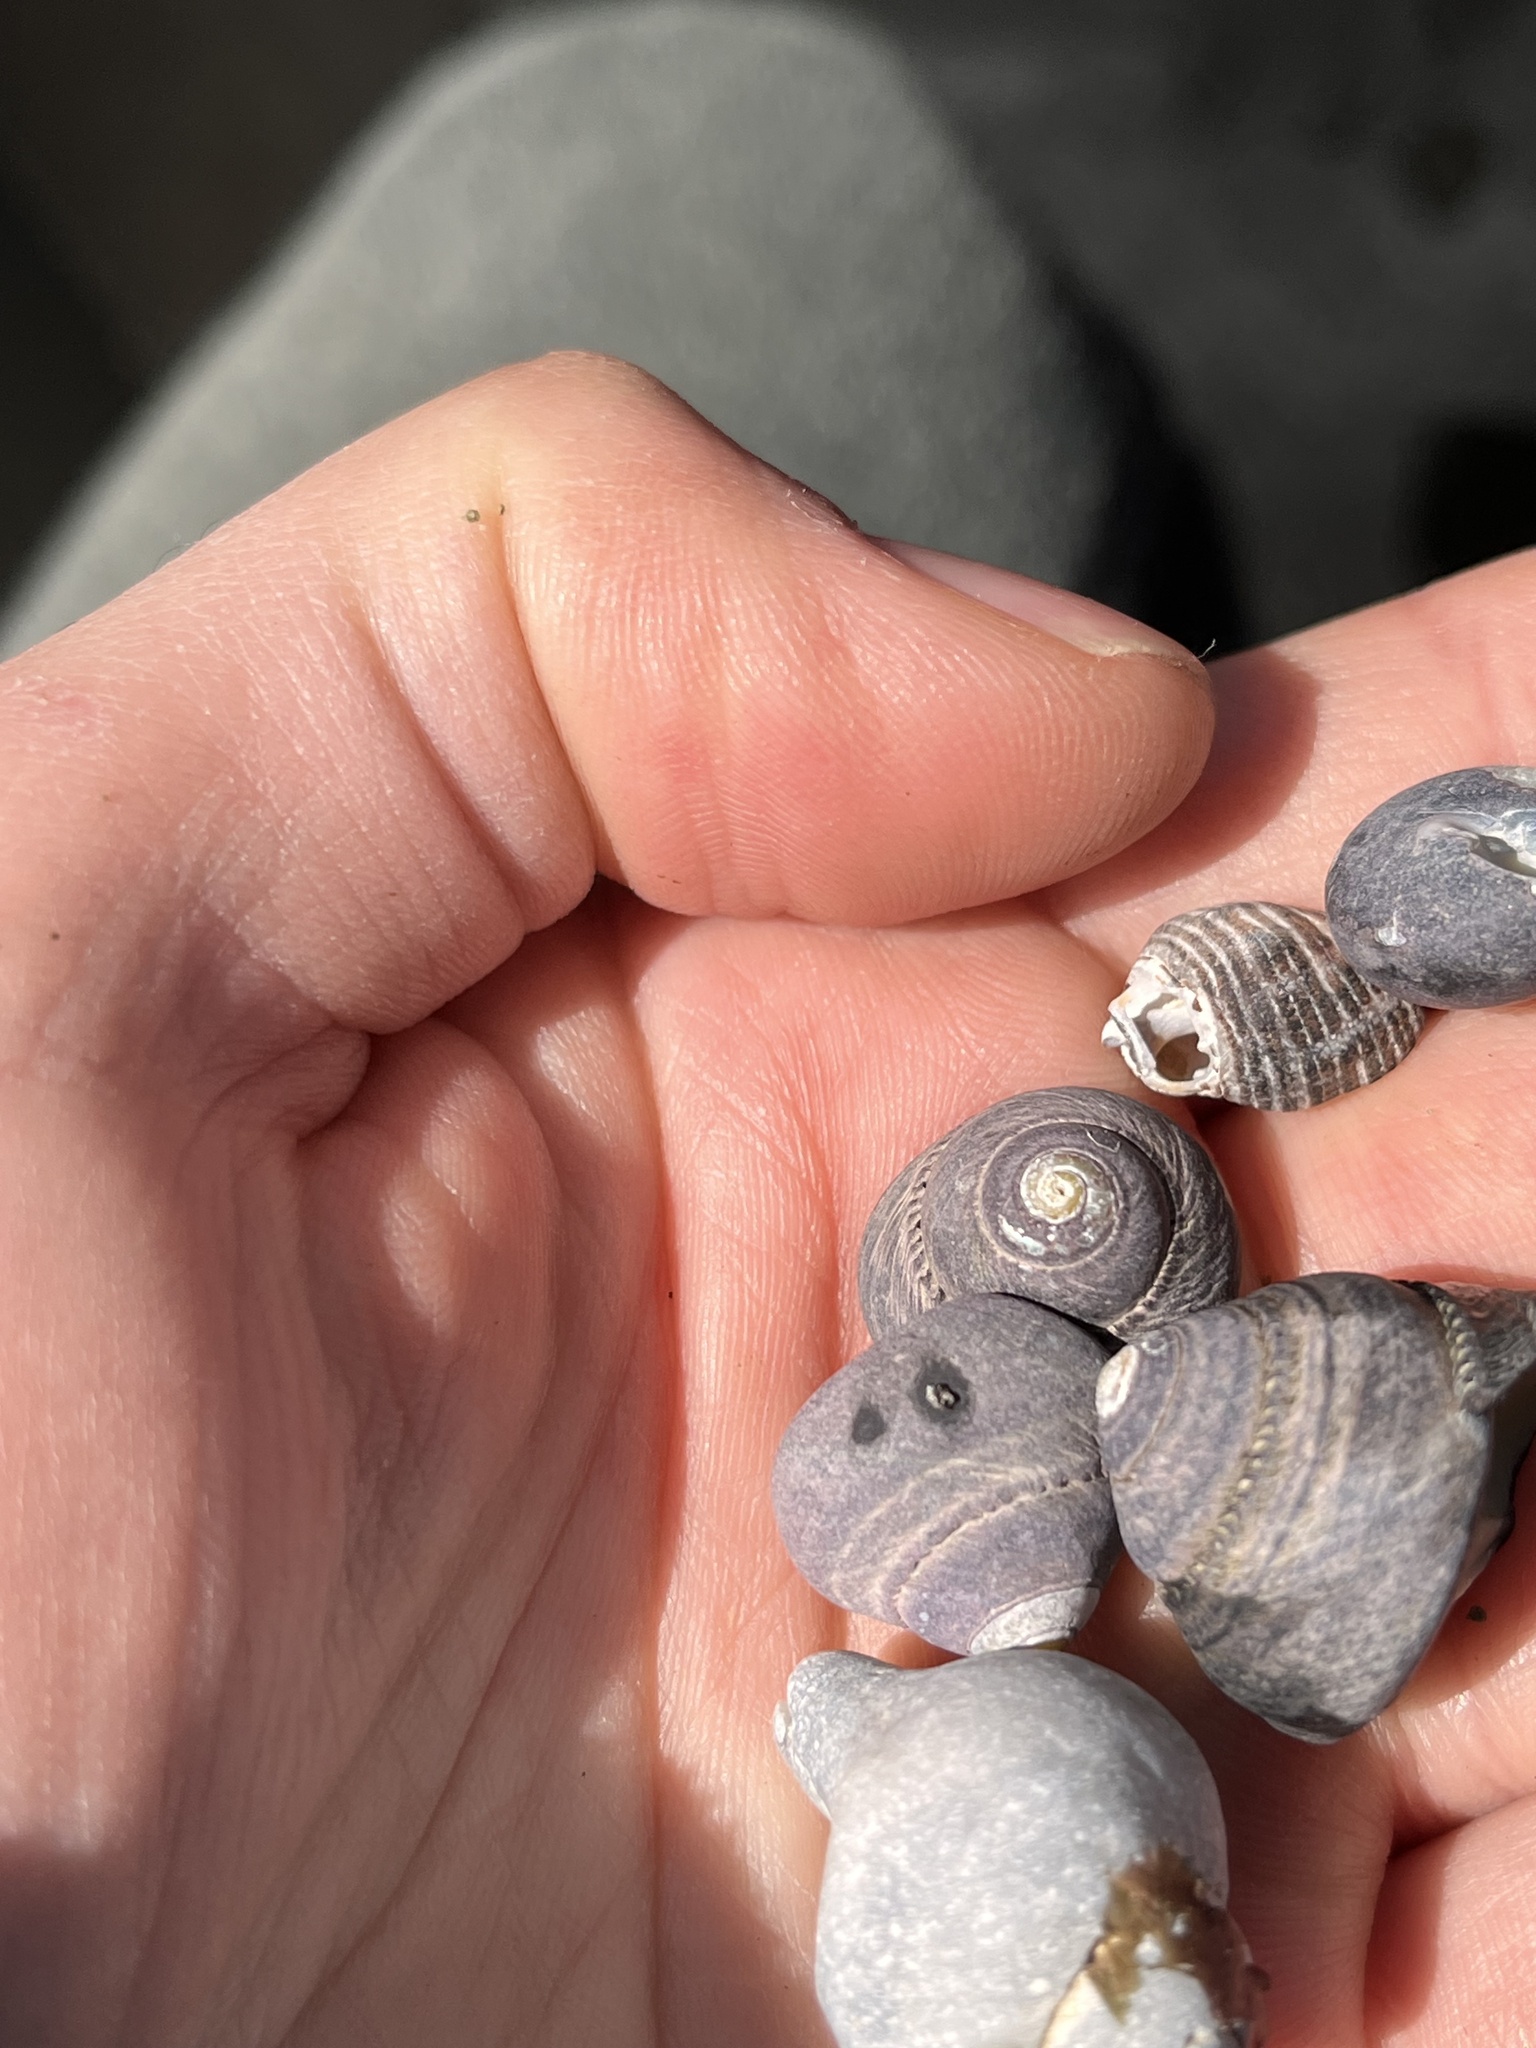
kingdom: Animalia
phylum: Mollusca
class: Gastropoda
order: Trochida
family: Tegulidae
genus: Tegula
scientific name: Tegula funebralis
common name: Black tegula
